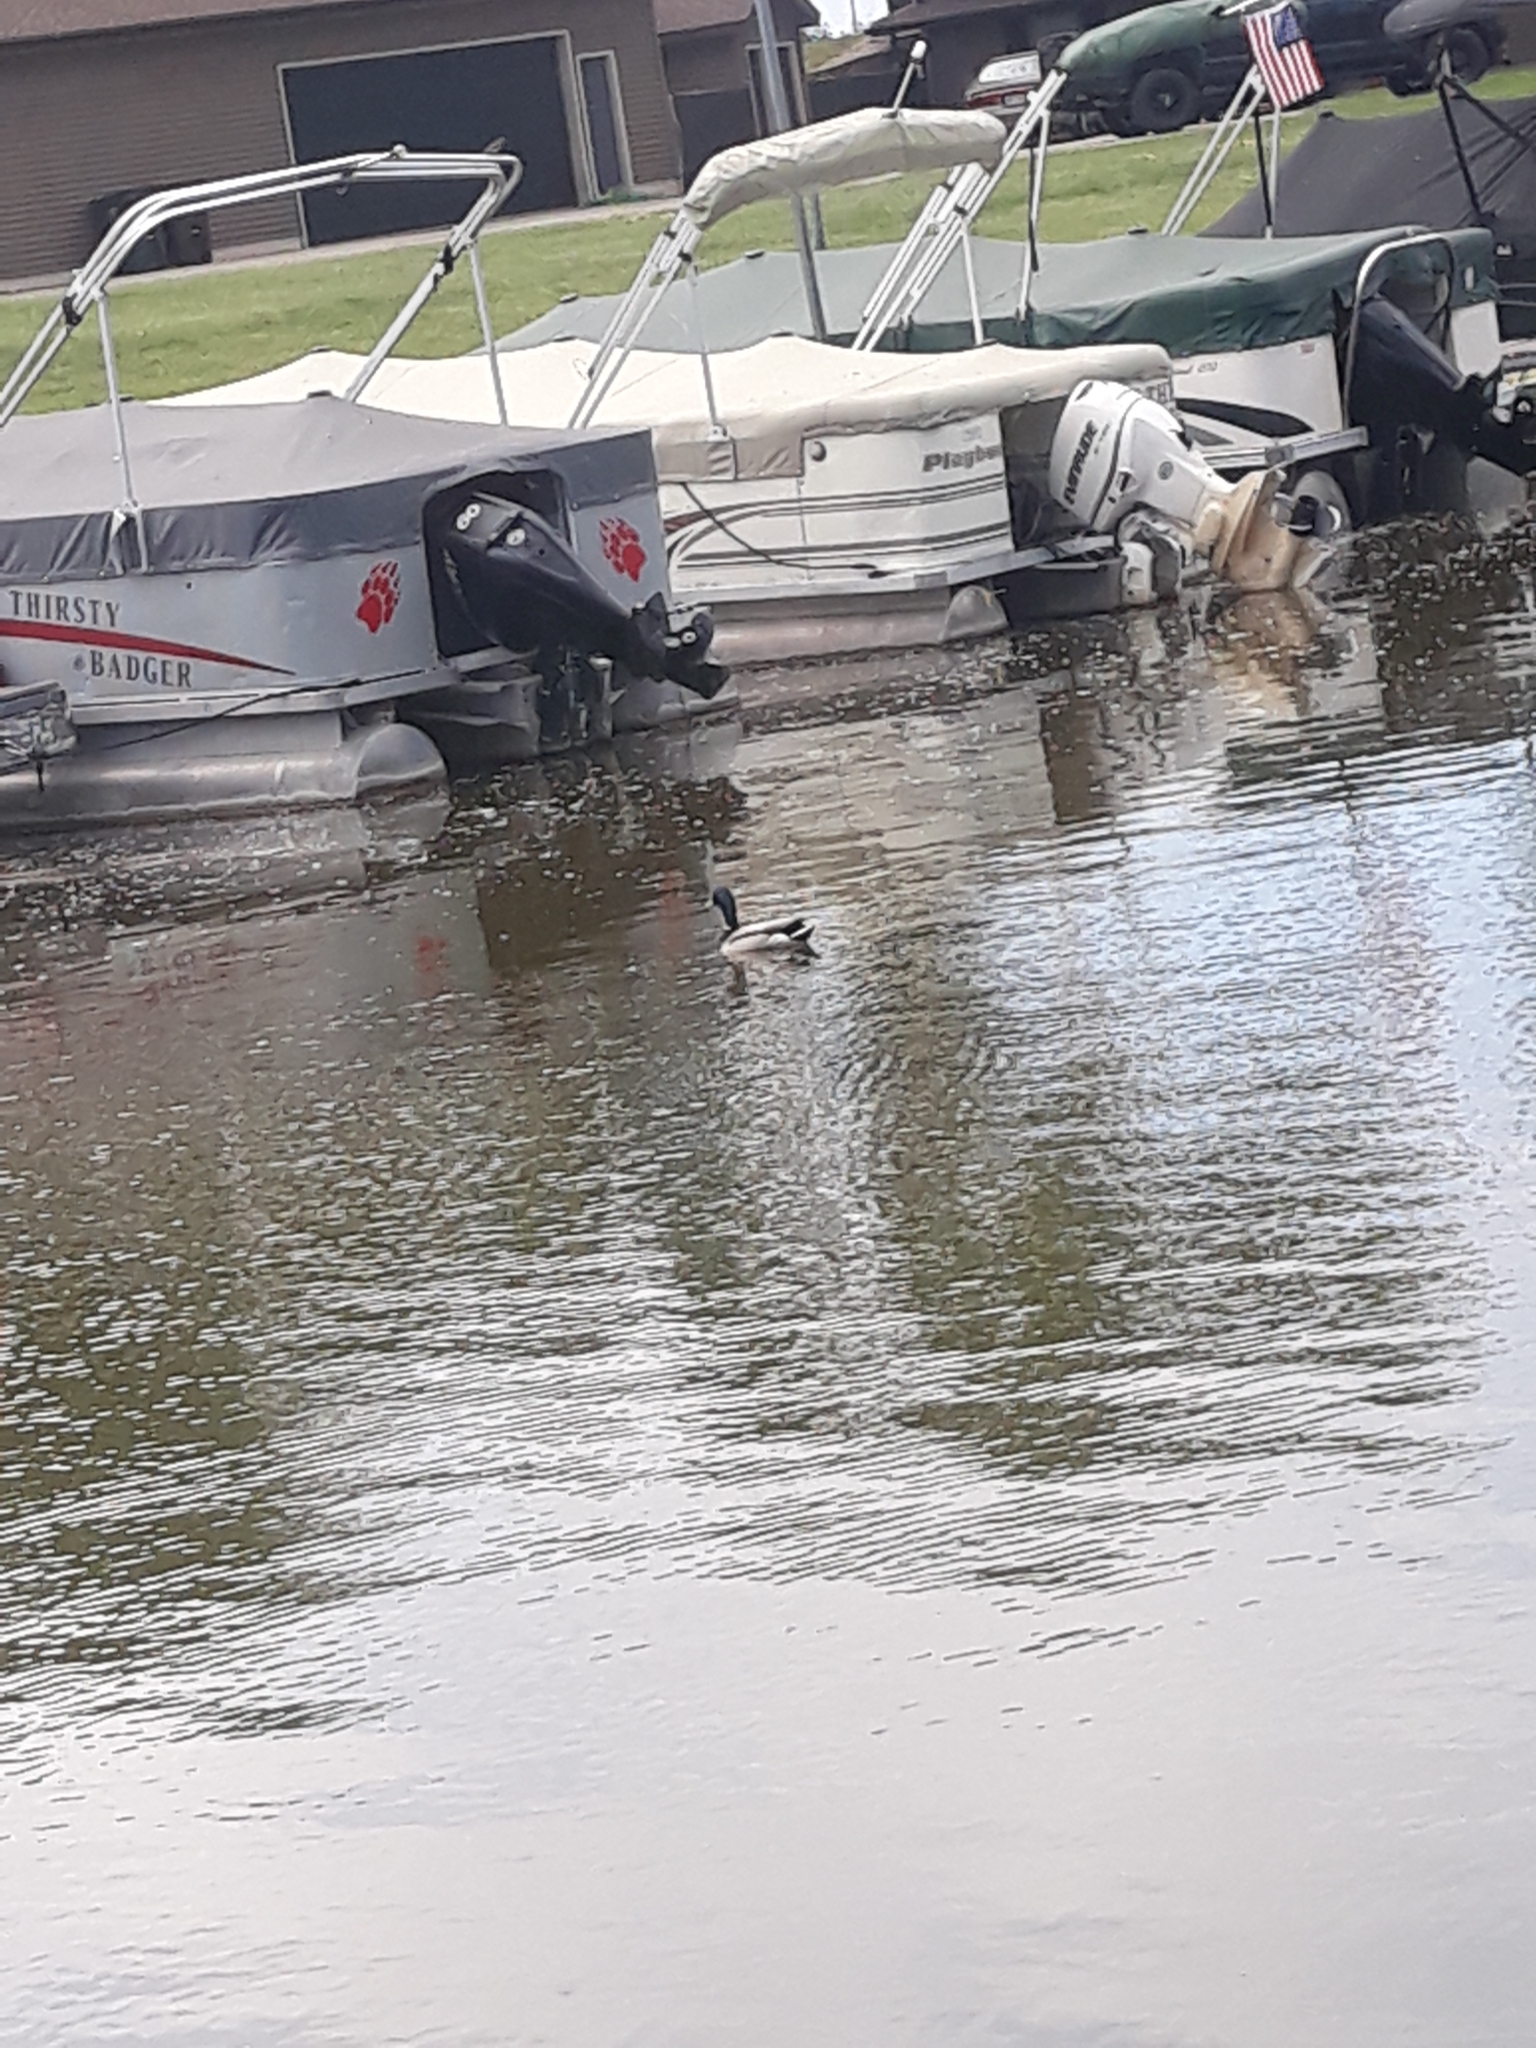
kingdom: Animalia
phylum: Chordata
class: Aves
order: Anseriformes
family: Anatidae
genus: Anas
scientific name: Anas platyrhynchos
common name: Mallard
